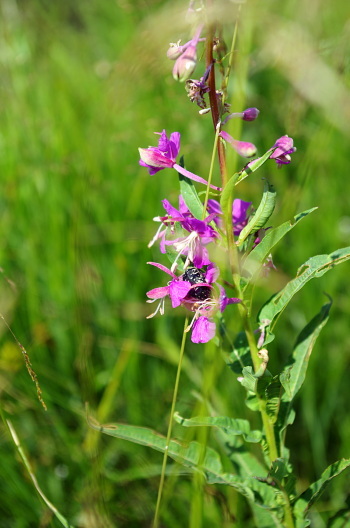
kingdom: Plantae
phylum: Tracheophyta
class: Magnoliopsida
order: Myrtales
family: Onagraceae
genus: Chamaenerion
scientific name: Chamaenerion angustifolium
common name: Fireweed
